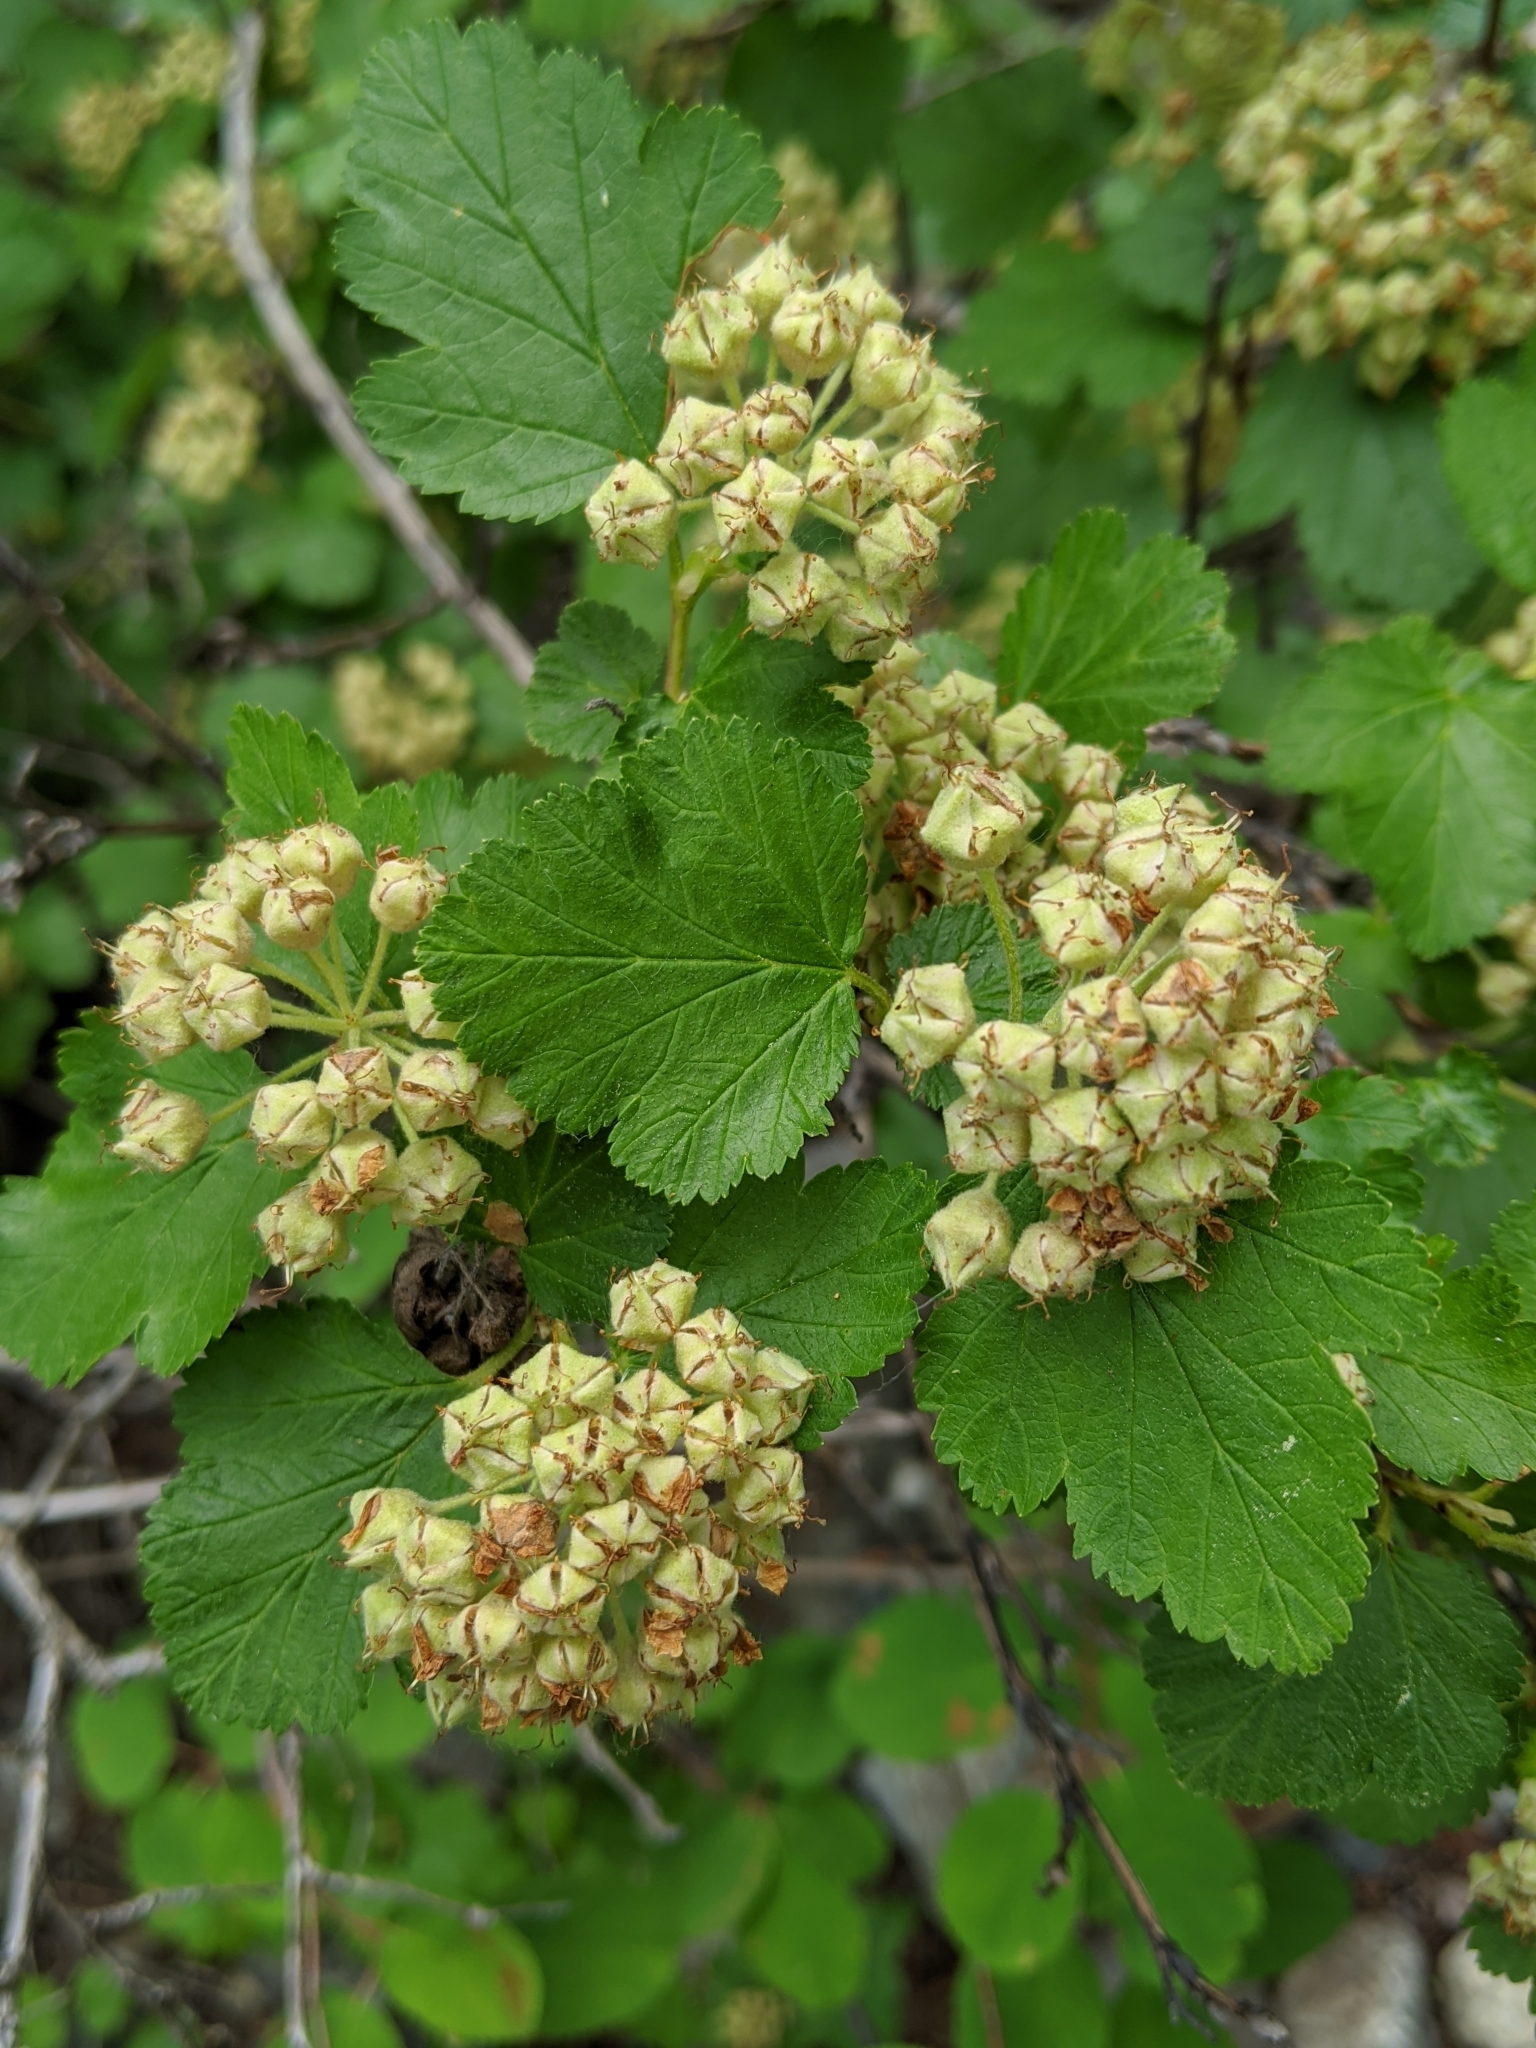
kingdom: Plantae
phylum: Tracheophyta
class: Magnoliopsida
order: Rosales
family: Rosaceae
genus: Physocarpus
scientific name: Physocarpus malvaceus
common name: Mallow ninebark
